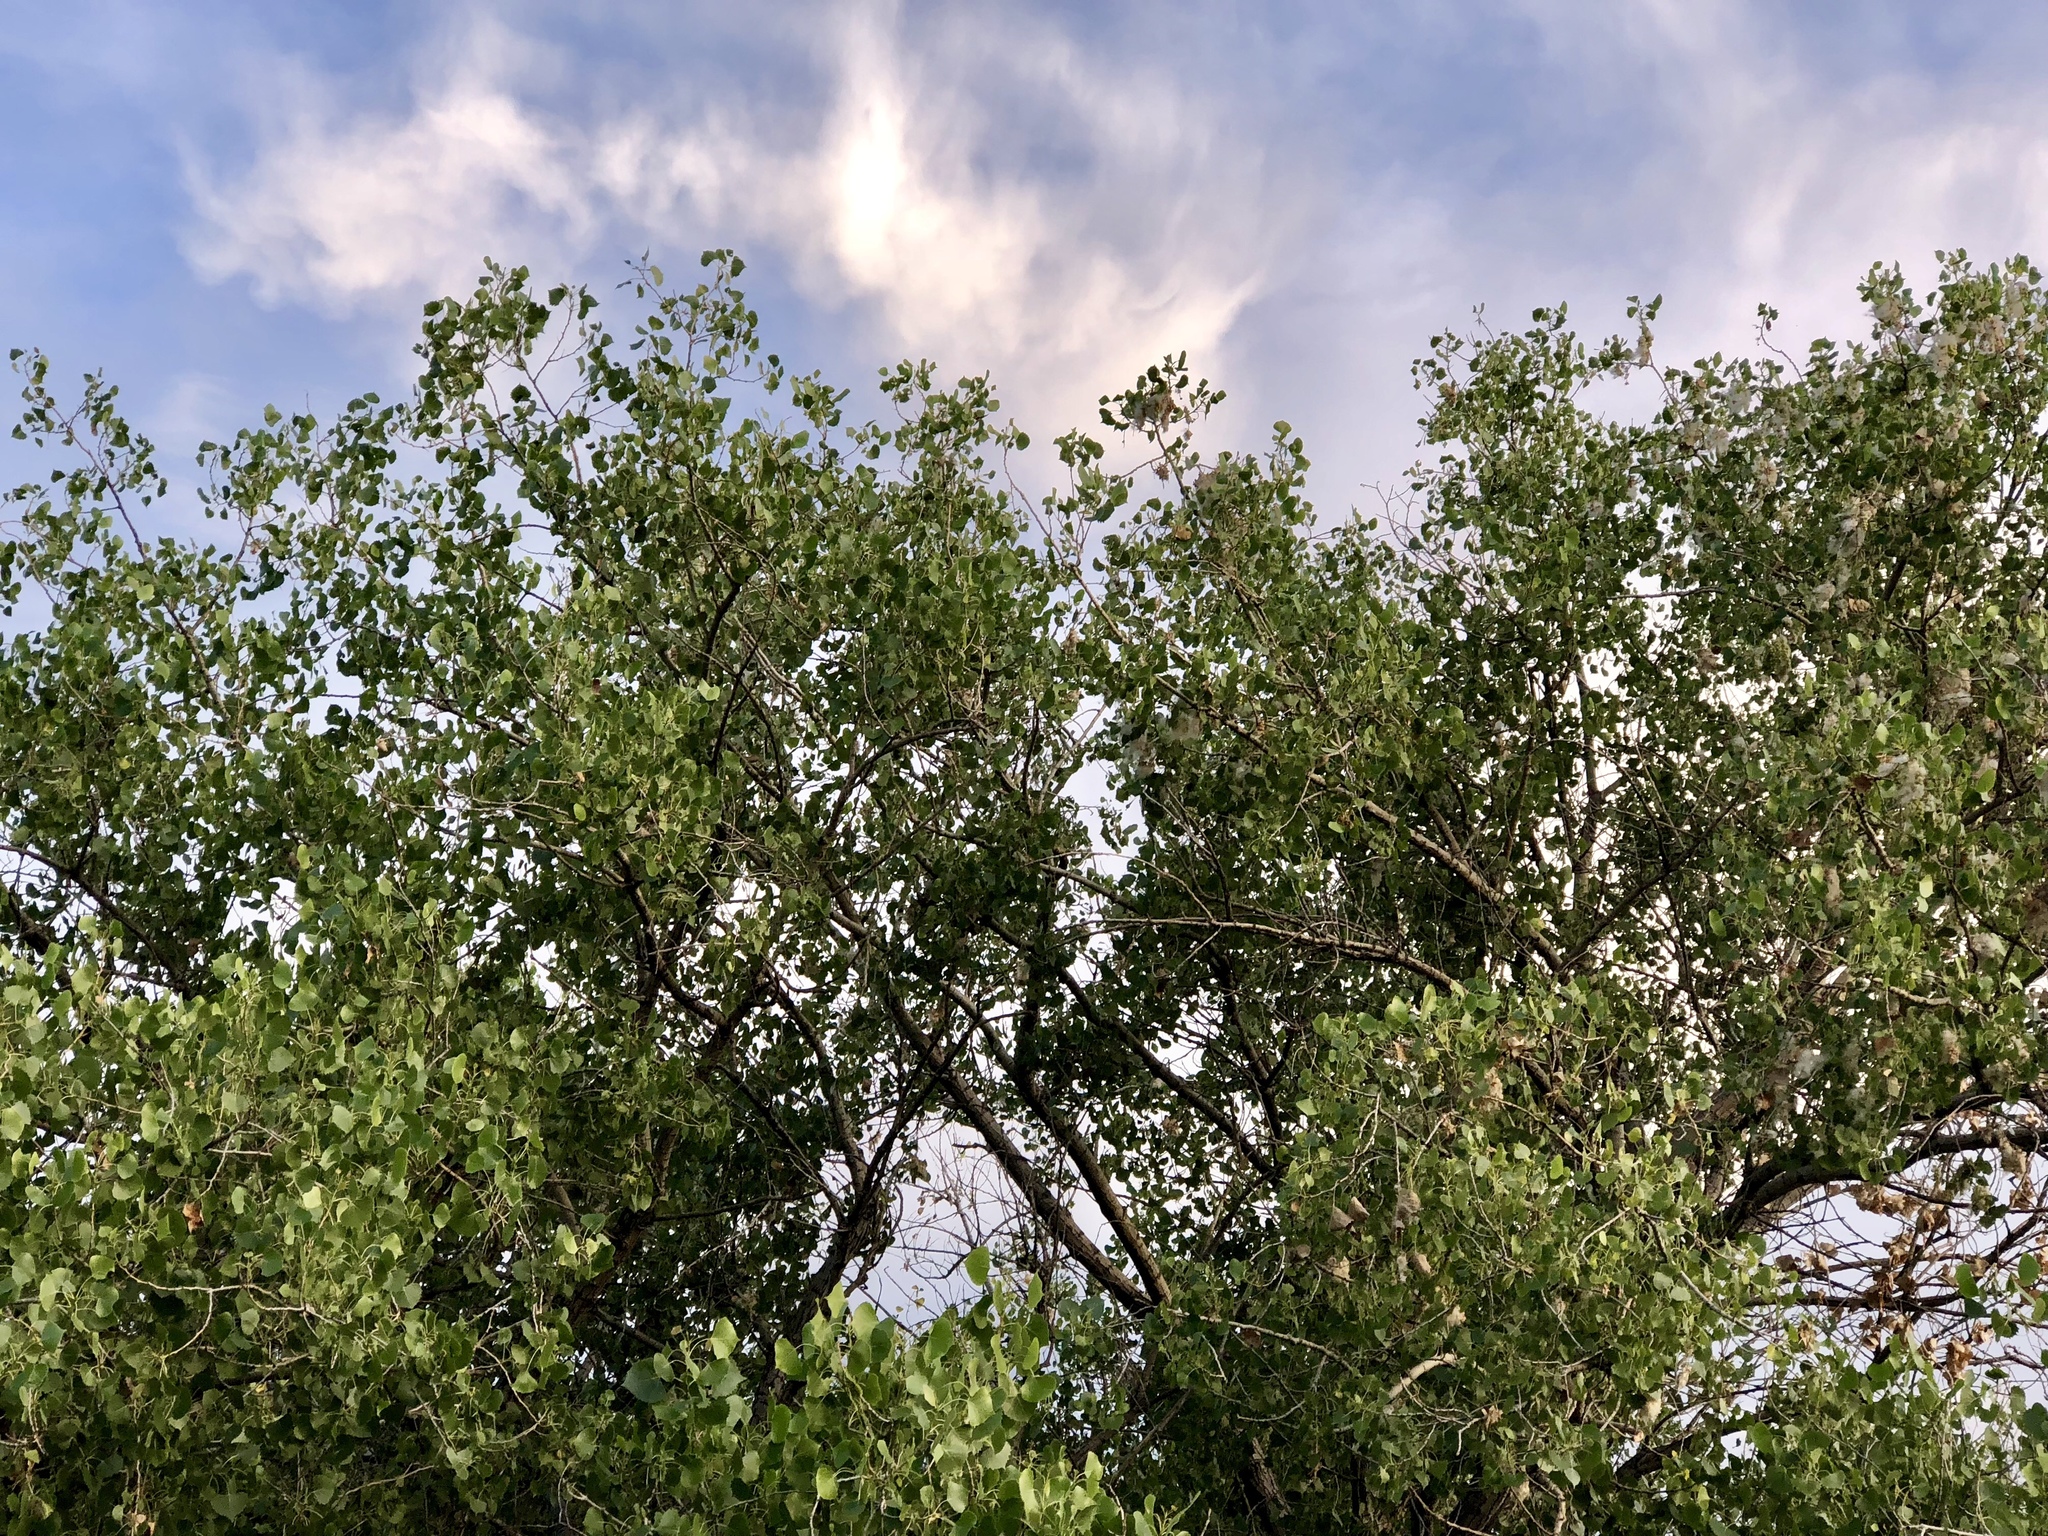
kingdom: Plantae
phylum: Tracheophyta
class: Magnoliopsida
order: Malpighiales
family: Salicaceae
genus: Populus
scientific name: Populus fremontii
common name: Fremont's cottonwood
